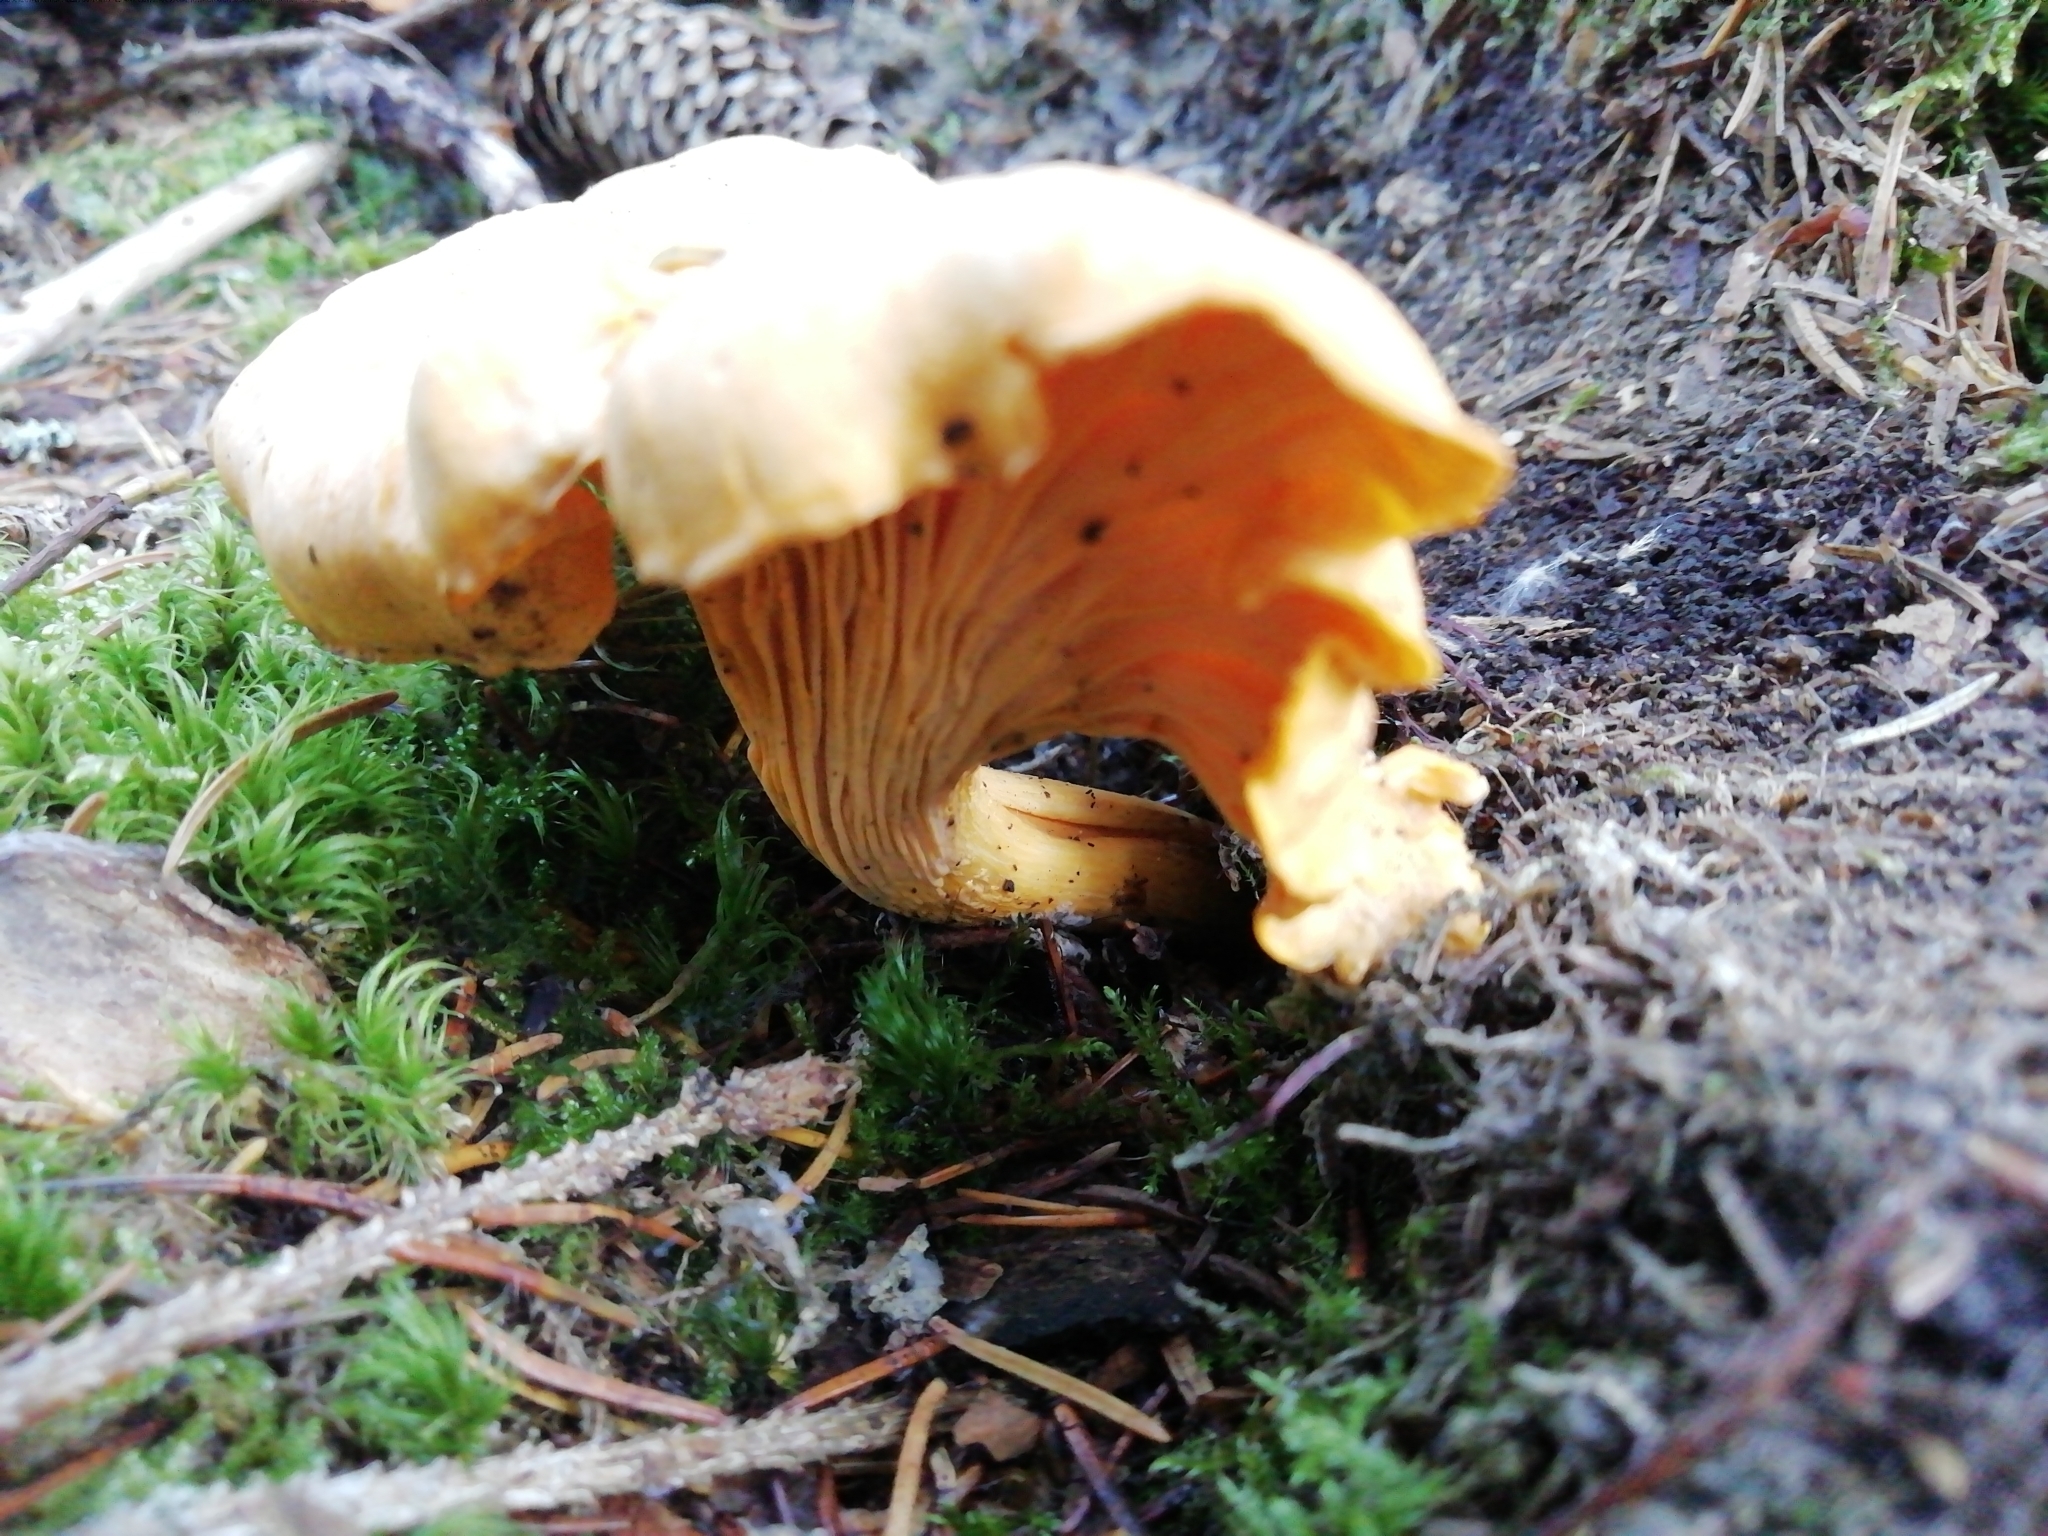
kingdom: Fungi
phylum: Basidiomycota
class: Agaricomycetes
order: Cantharellales
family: Hydnaceae
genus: Cantharellus
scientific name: Cantharellus cibarius
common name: Chanterelle
